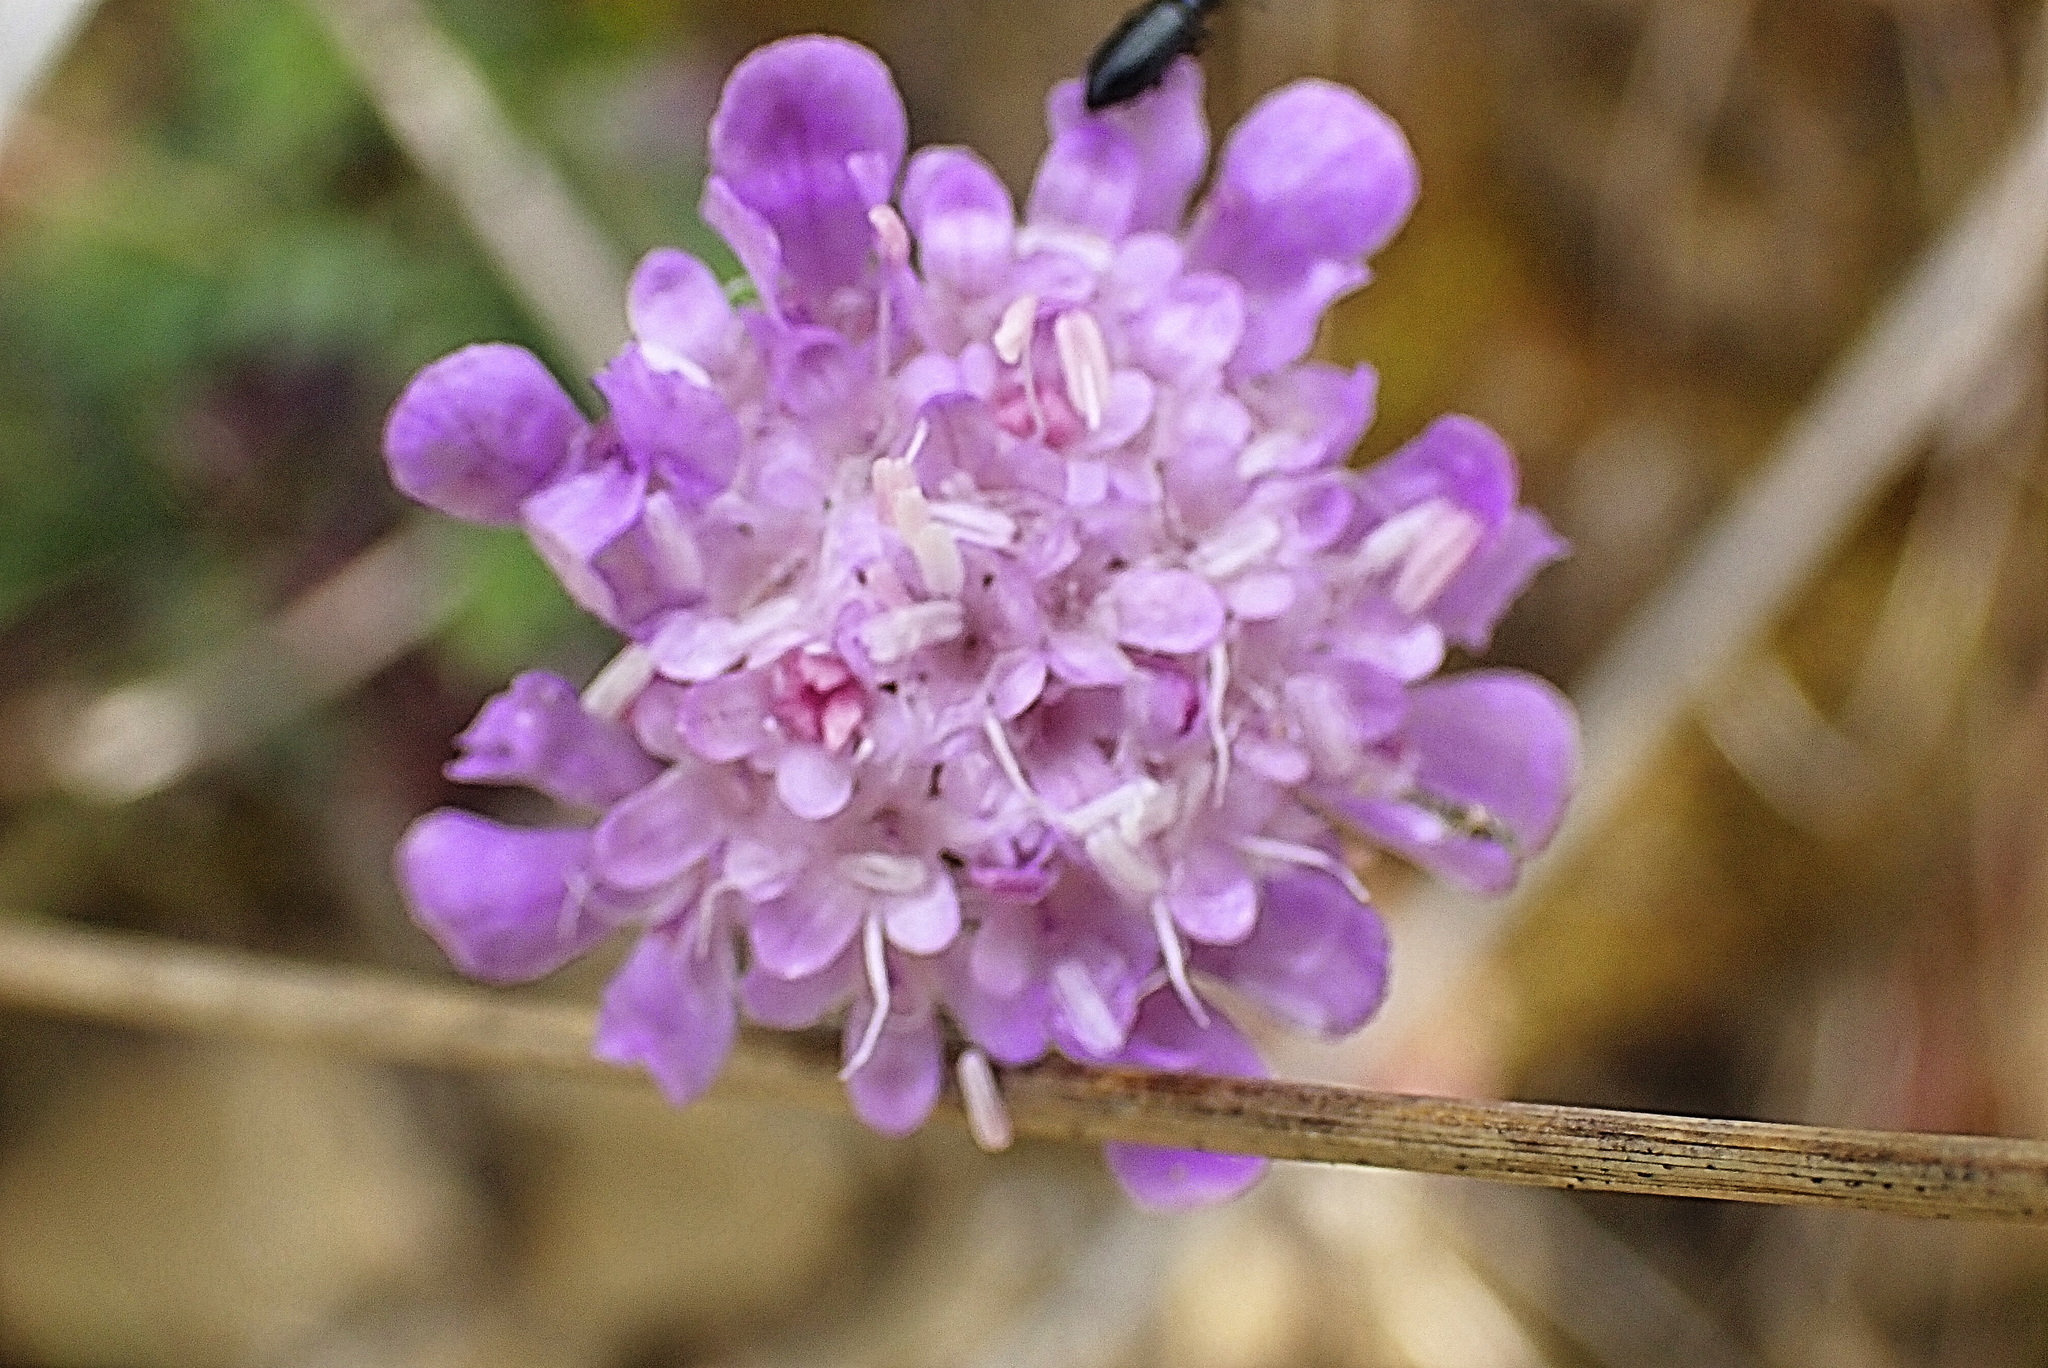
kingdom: Plantae
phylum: Tracheophyta
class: Magnoliopsida
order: Dipsacales
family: Caprifoliaceae
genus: Scabiosa
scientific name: Scabiosa columbaria
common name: Small scabious
